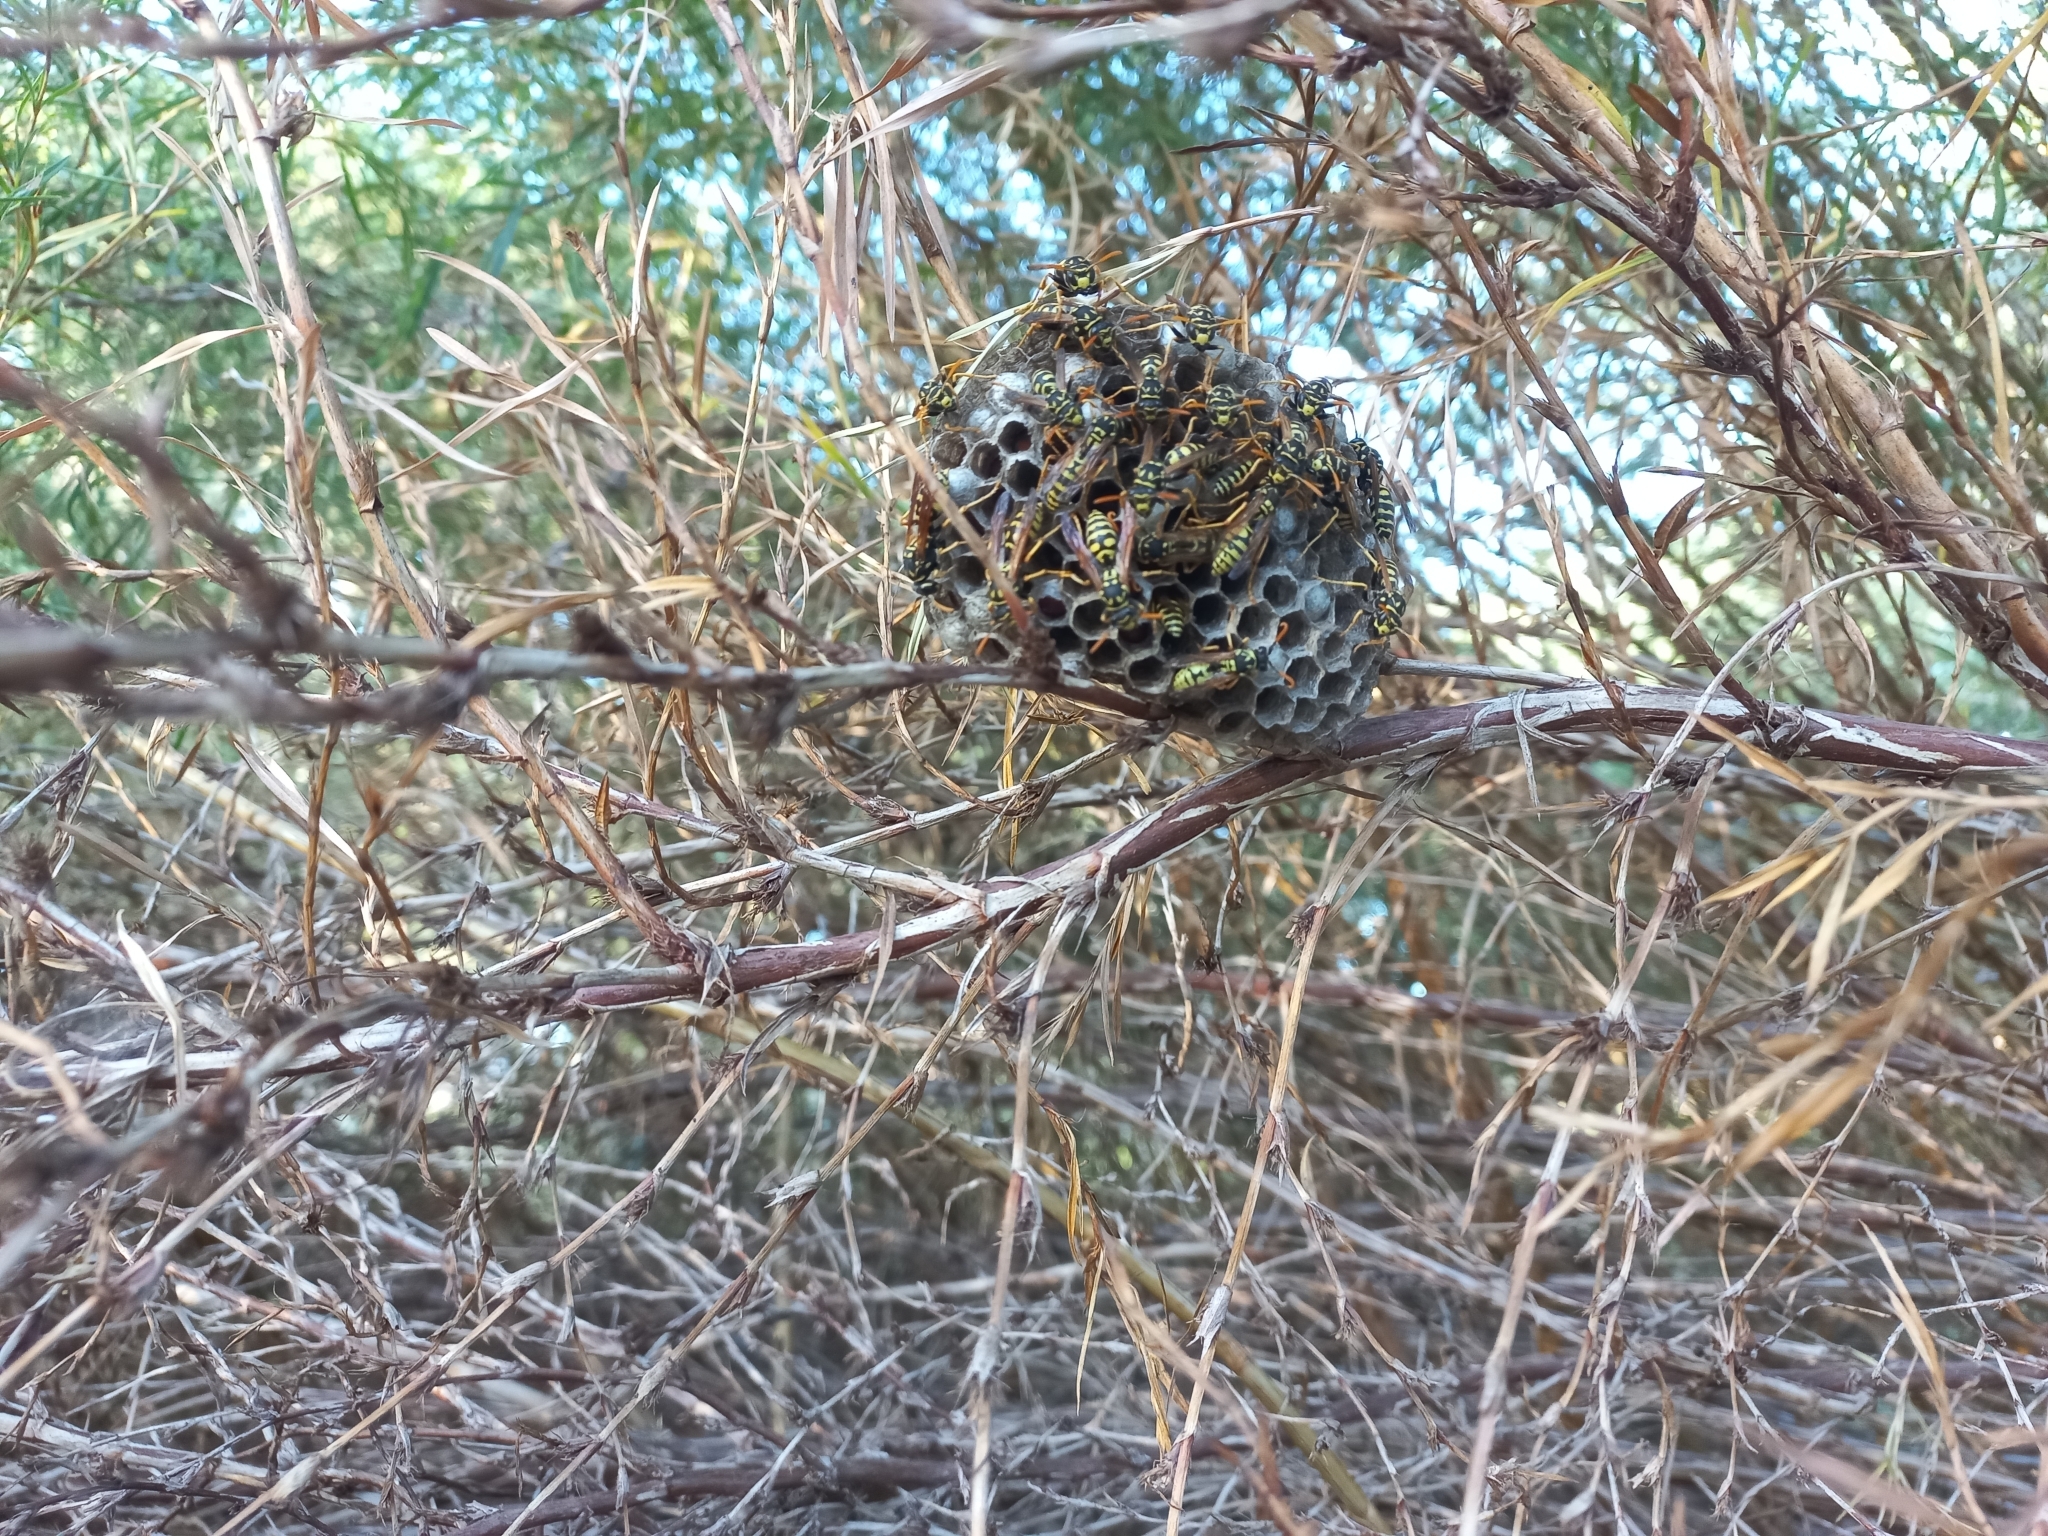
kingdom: Animalia
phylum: Arthropoda
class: Insecta
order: Hymenoptera
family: Eumenidae
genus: Polistes
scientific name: Polistes dominula
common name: Paper wasp
